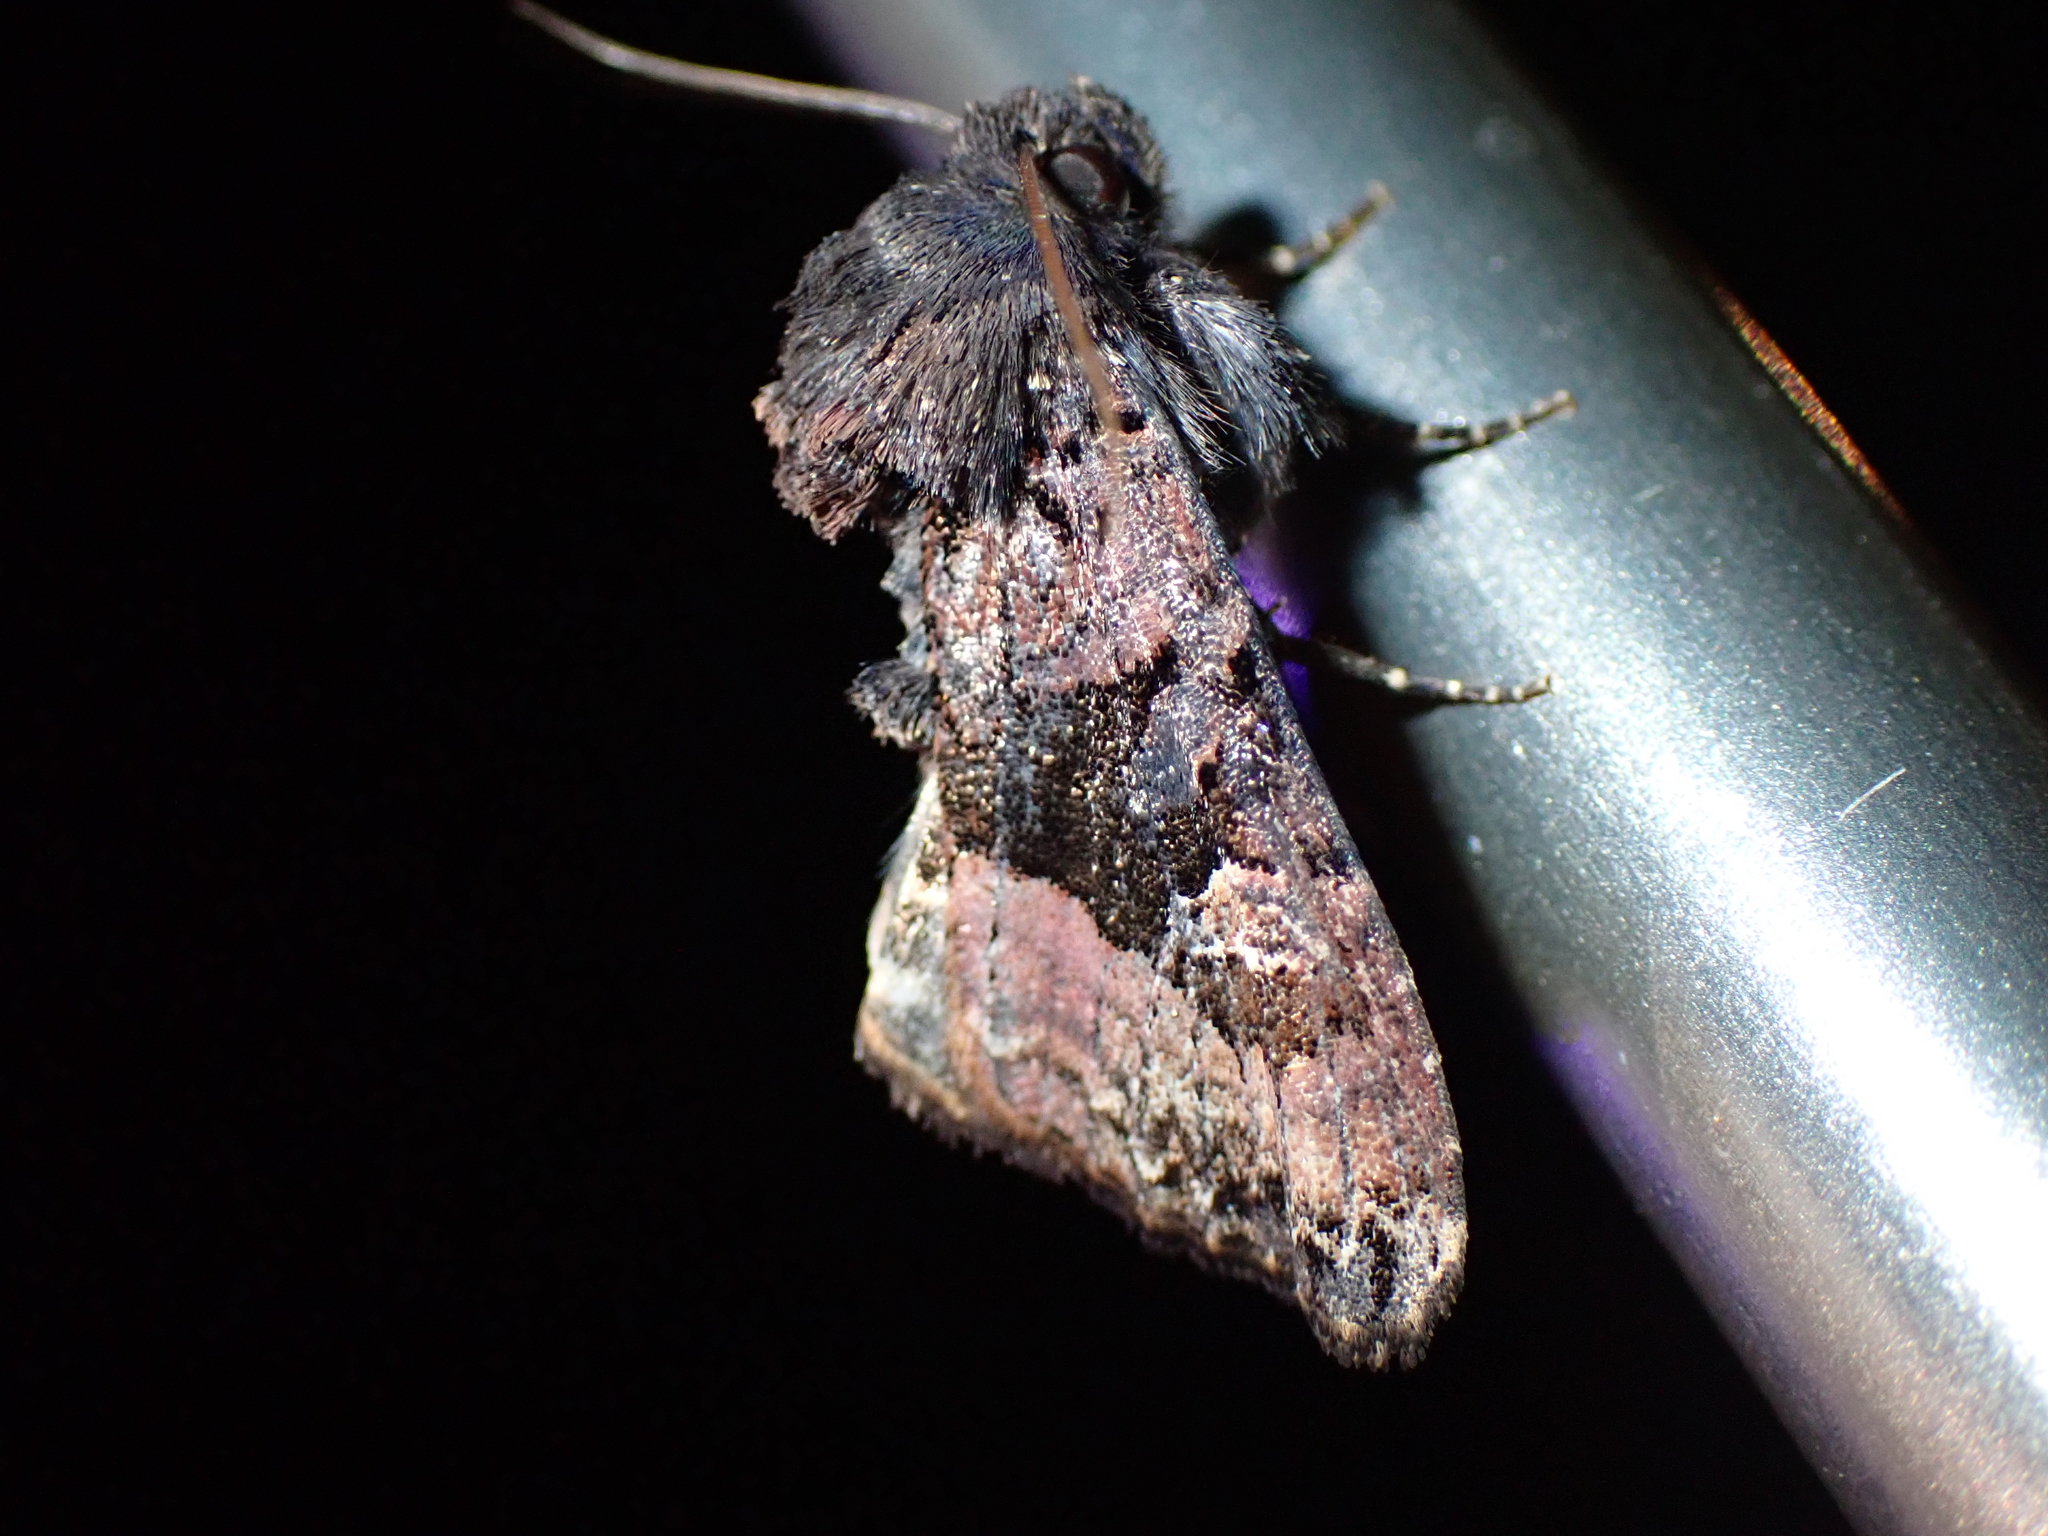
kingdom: Animalia
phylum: Arthropoda
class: Insecta
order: Lepidoptera
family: Noctuidae
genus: Euplexia
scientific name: Euplexia benesimilis
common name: American angle shades
